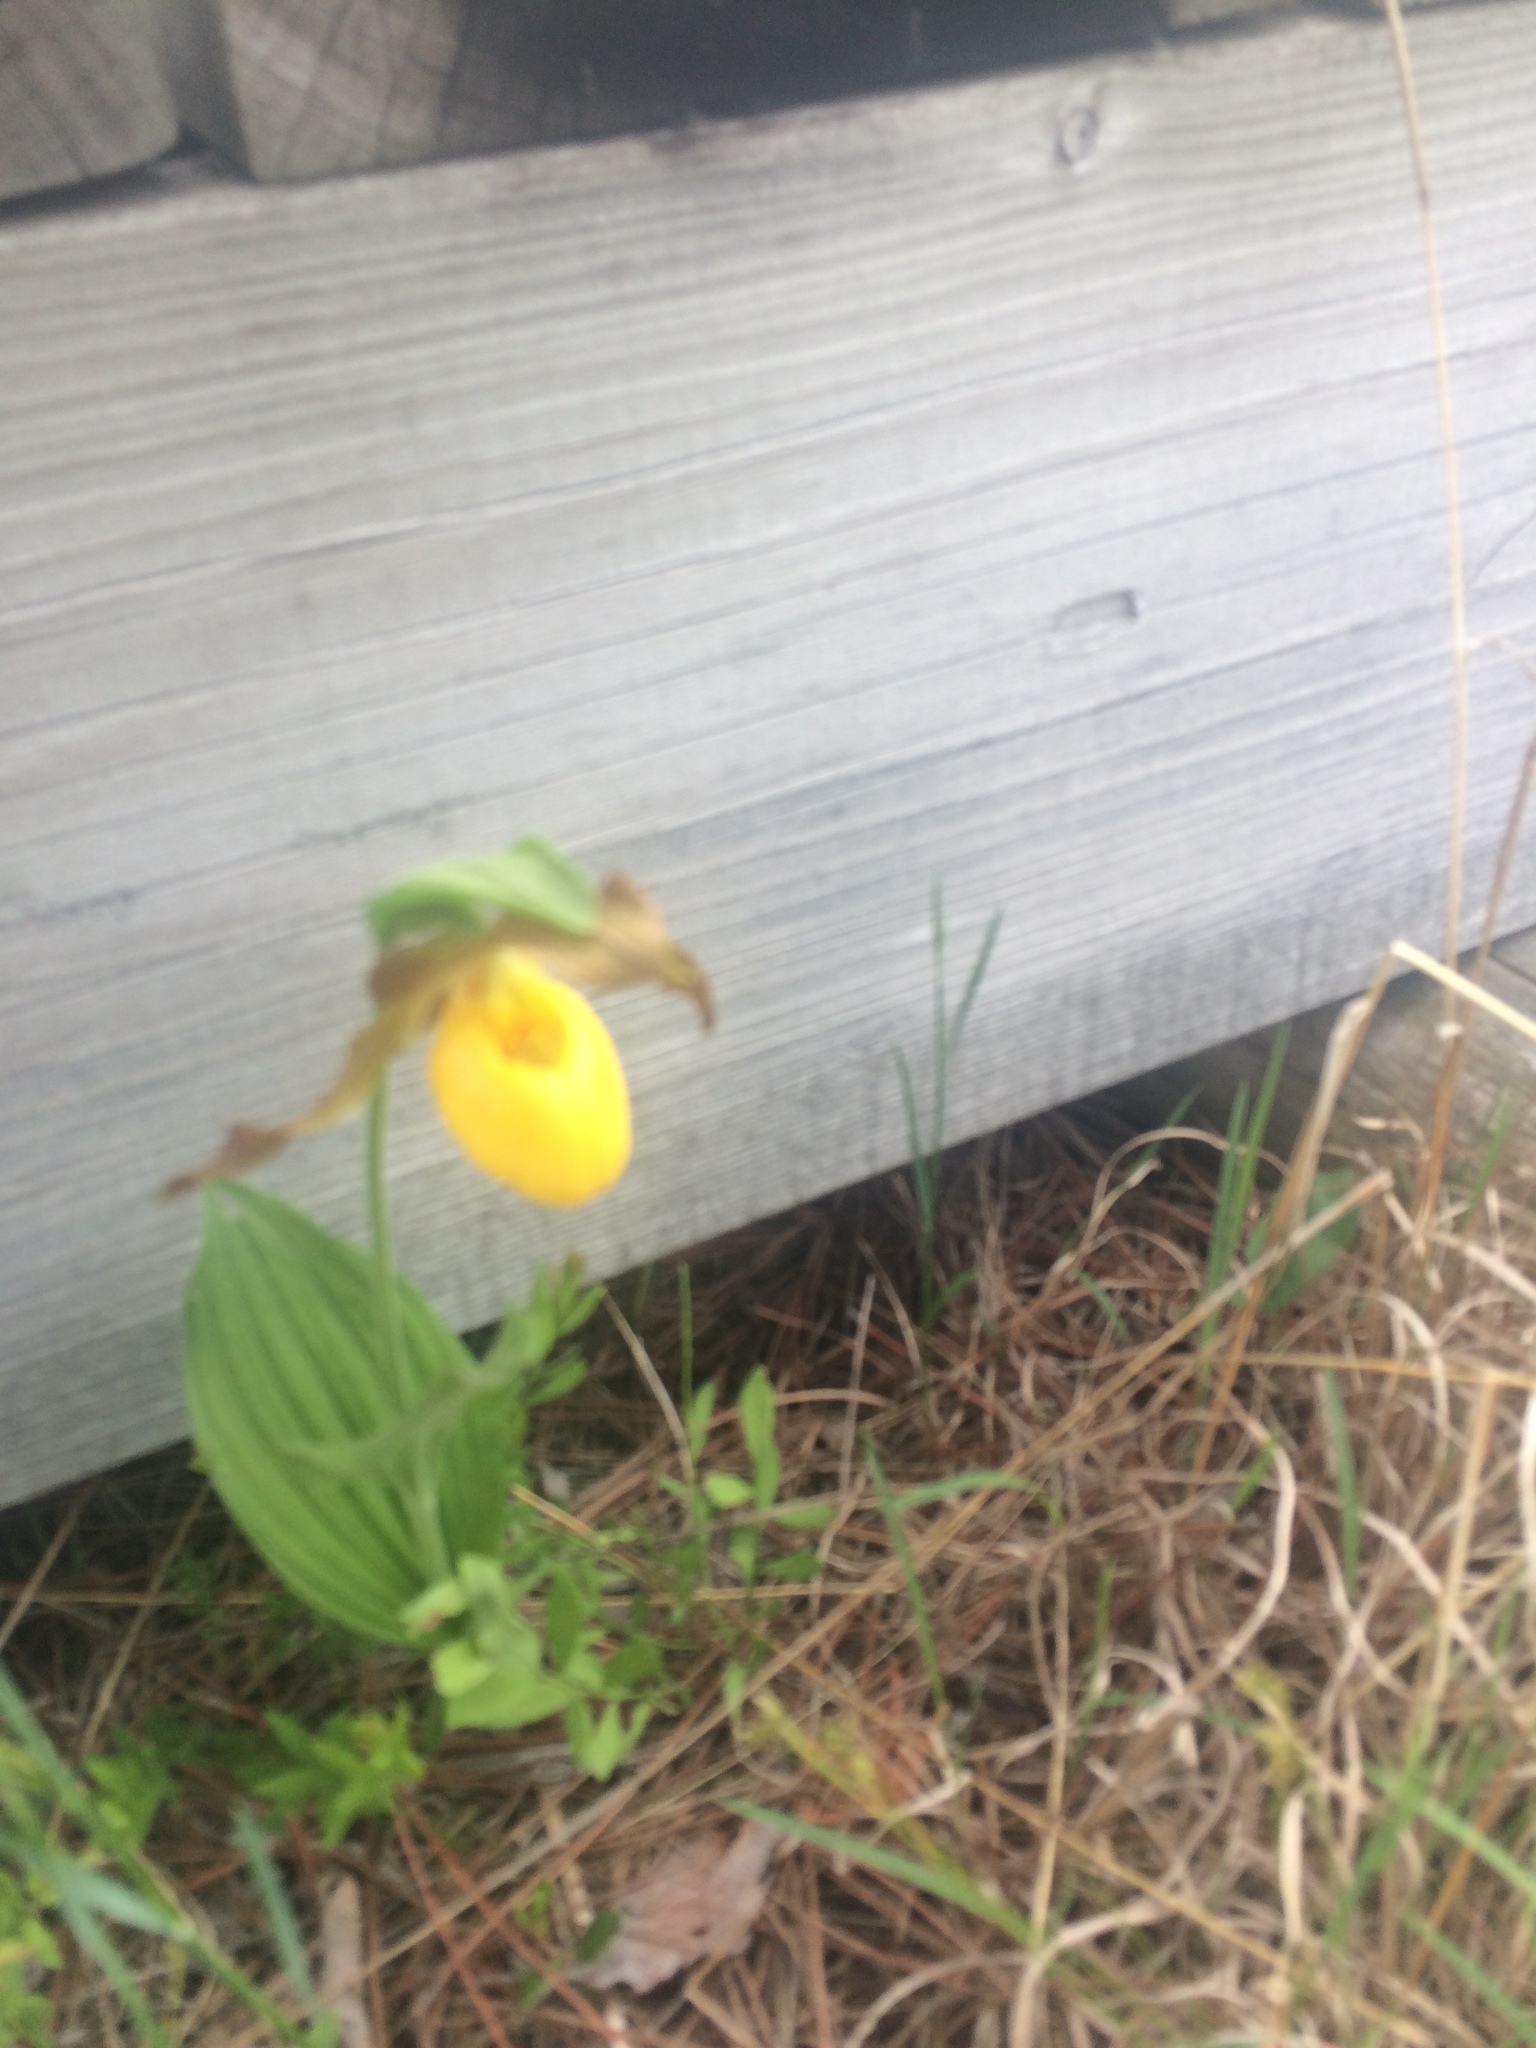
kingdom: Plantae
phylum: Tracheophyta
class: Liliopsida
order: Asparagales
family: Orchidaceae
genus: Cypripedium
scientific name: Cypripedium parviflorum
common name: American yellow lady's-slipper
